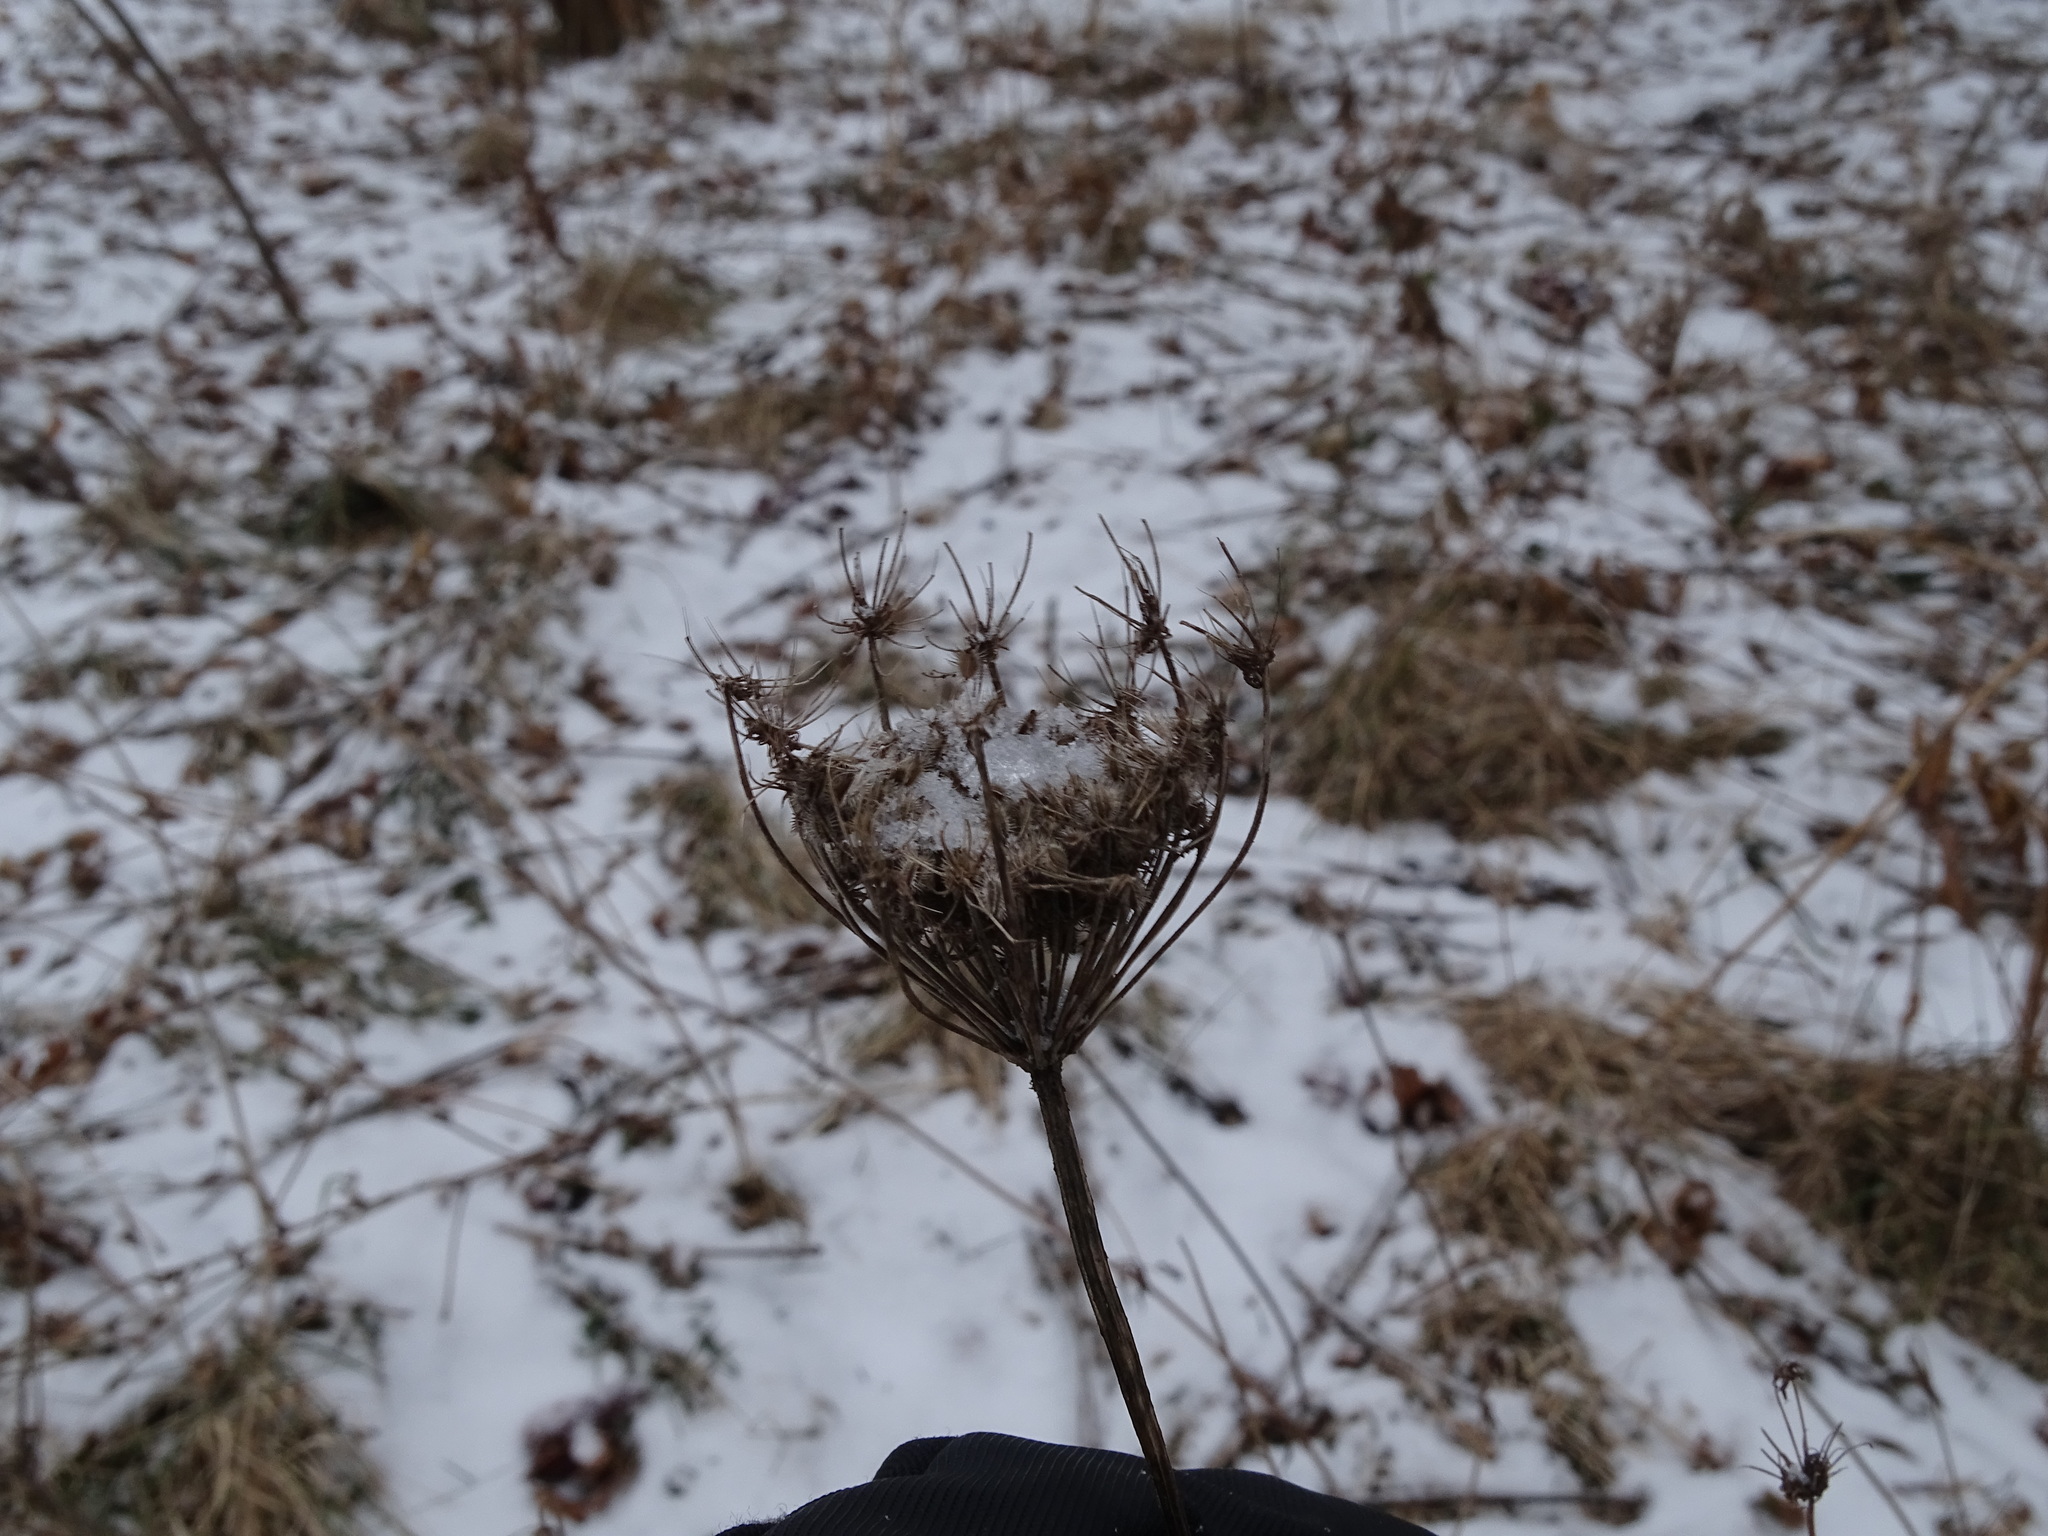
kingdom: Plantae
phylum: Tracheophyta
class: Magnoliopsida
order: Apiales
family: Apiaceae
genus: Daucus
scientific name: Daucus carota
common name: Wild carrot
